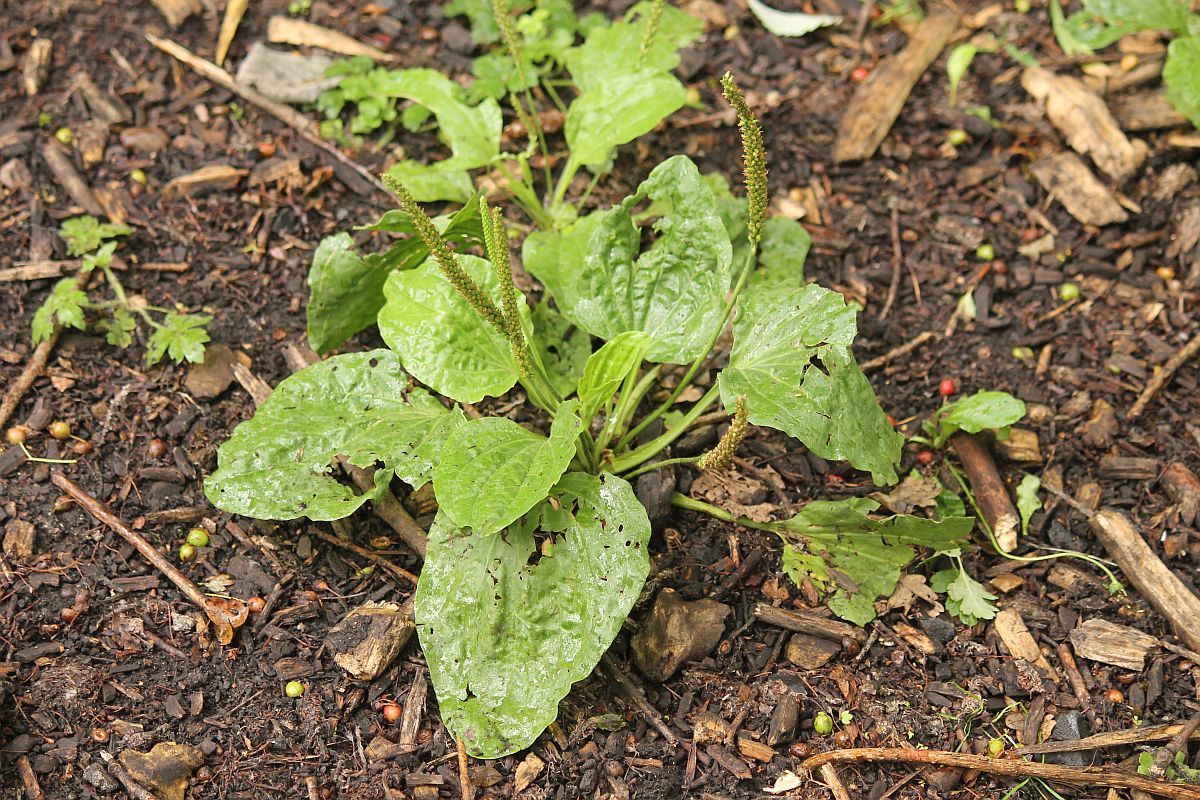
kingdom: Plantae
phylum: Tracheophyta
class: Magnoliopsida
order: Lamiales
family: Plantaginaceae
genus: Plantago
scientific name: Plantago major
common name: Common plantain
